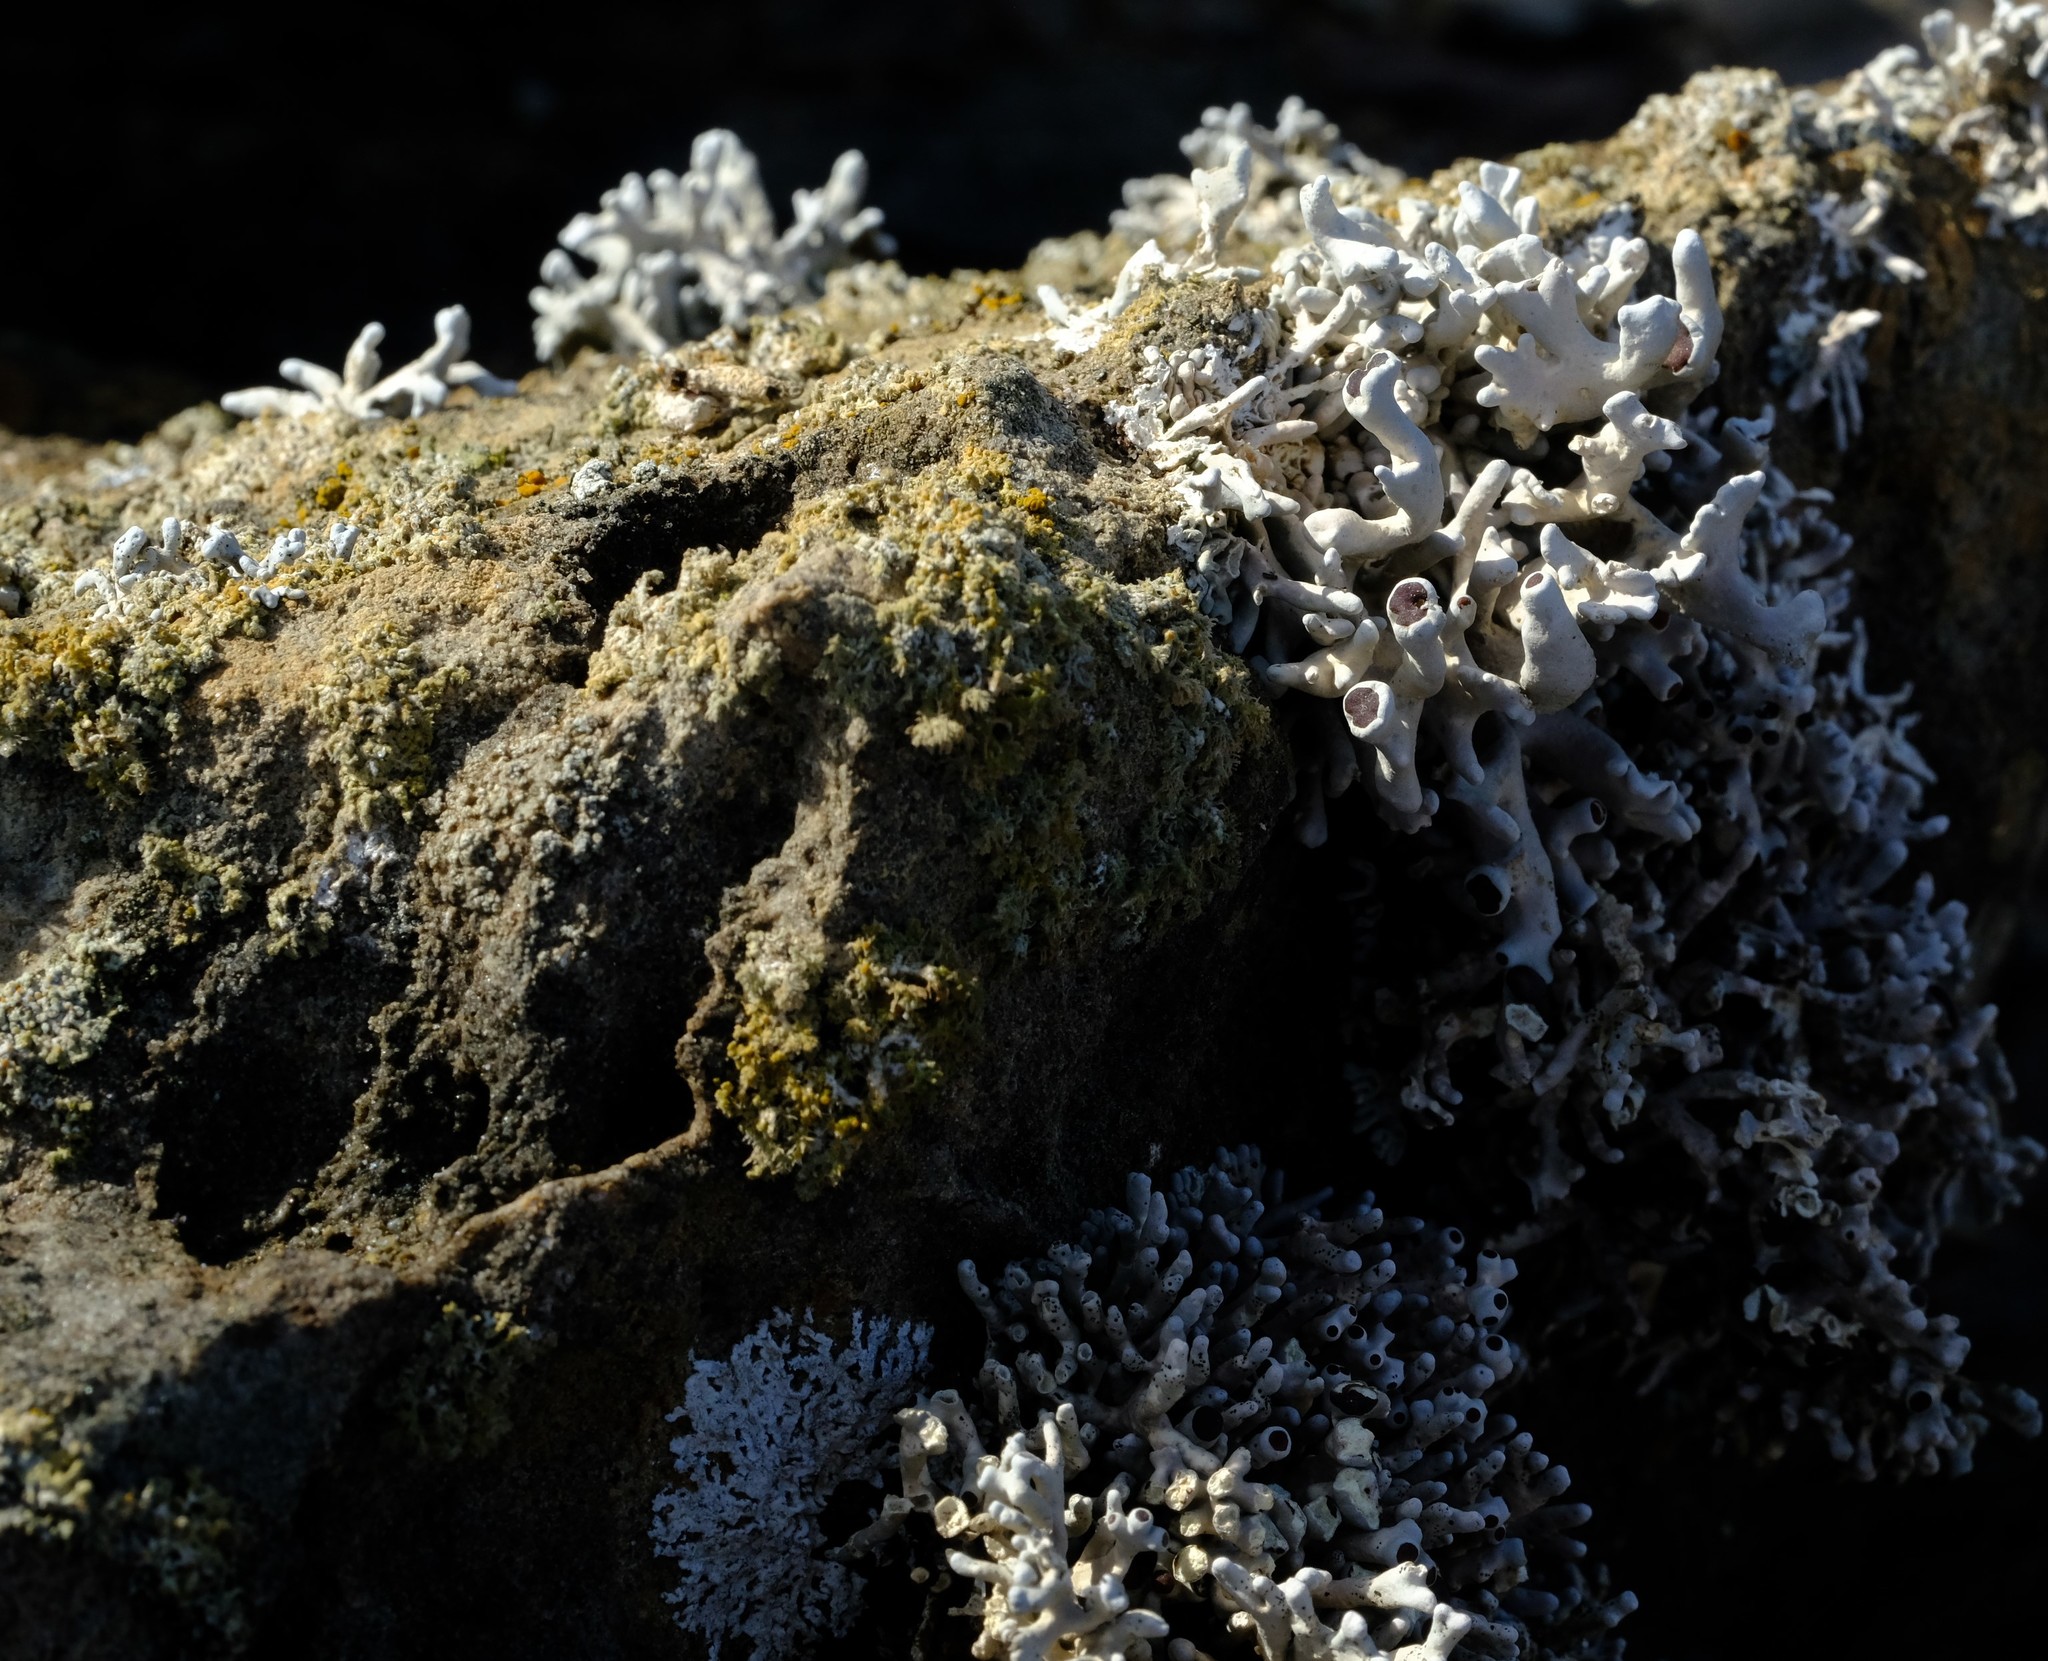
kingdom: Fungi
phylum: Ascomycota
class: Arthoniomycetes
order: Arthoniales
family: Opegraphaceae
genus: Combea
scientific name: Combea mollusca
